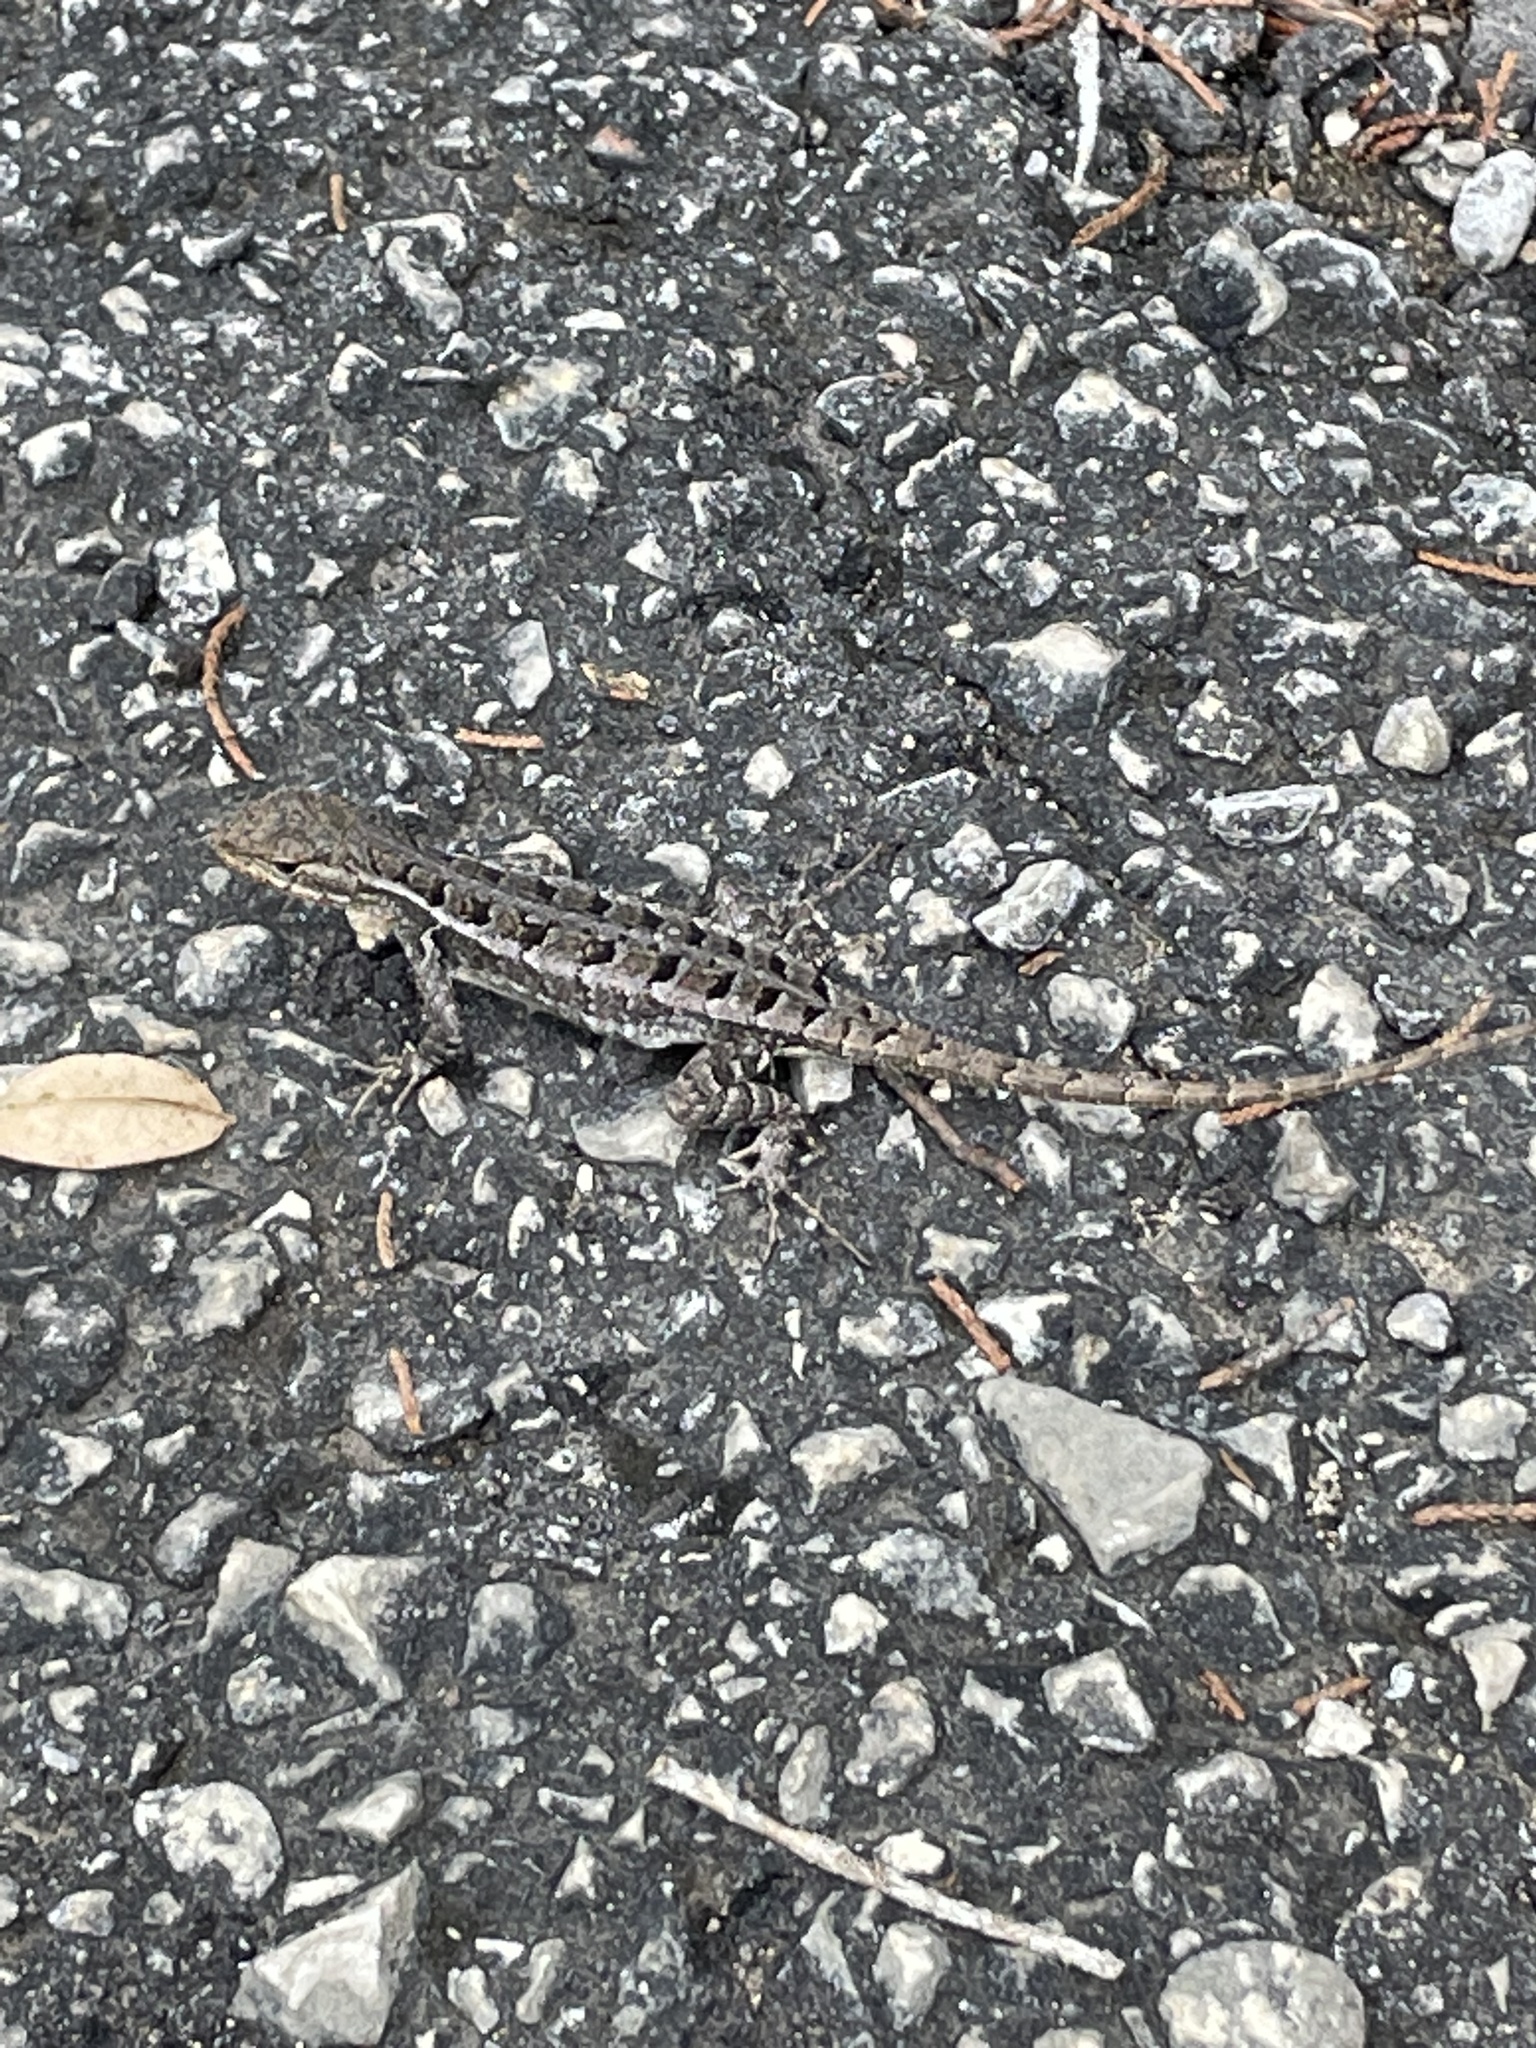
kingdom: Animalia
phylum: Chordata
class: Squamata
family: Phrynosomatidae
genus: Sceloporus
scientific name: Sceloporus variabilis
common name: Rosebelly lizard
